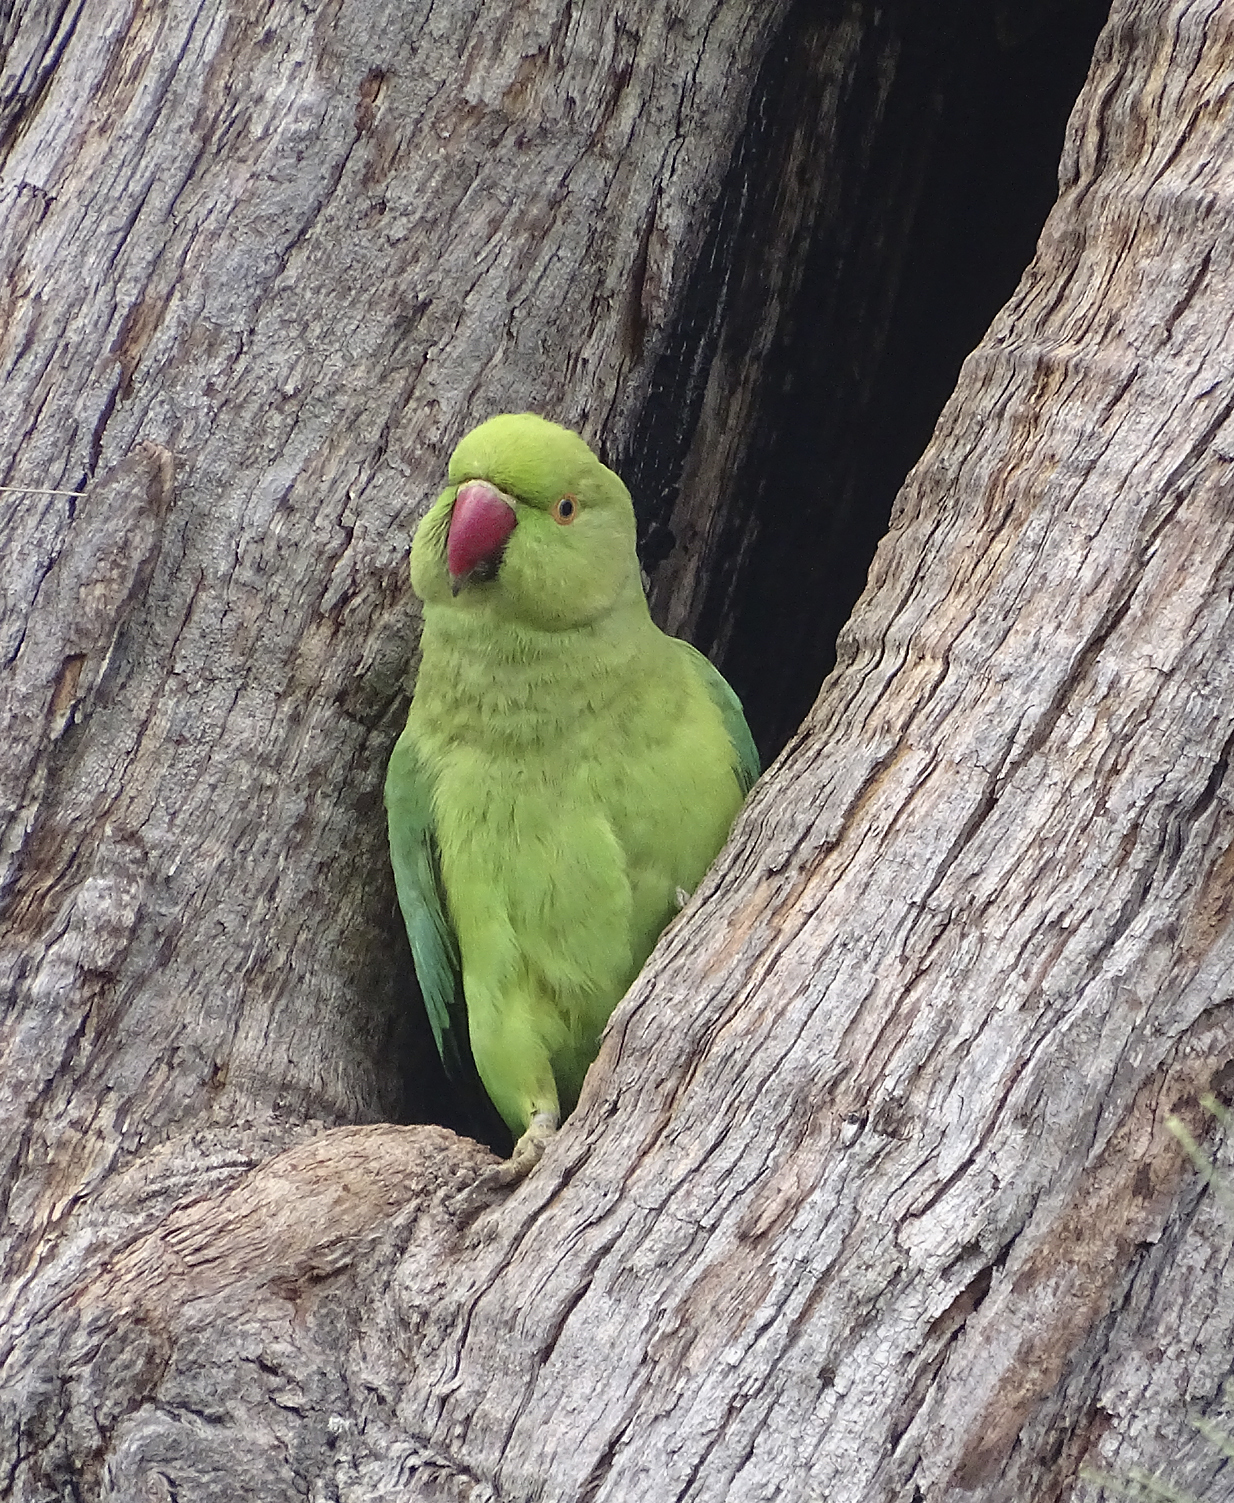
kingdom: Animalia
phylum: Chordata
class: Aves
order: Psittaciformes
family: Psittacidae
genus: Psittacula
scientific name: Psittacula krameri
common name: Rose-ringed parakeet
